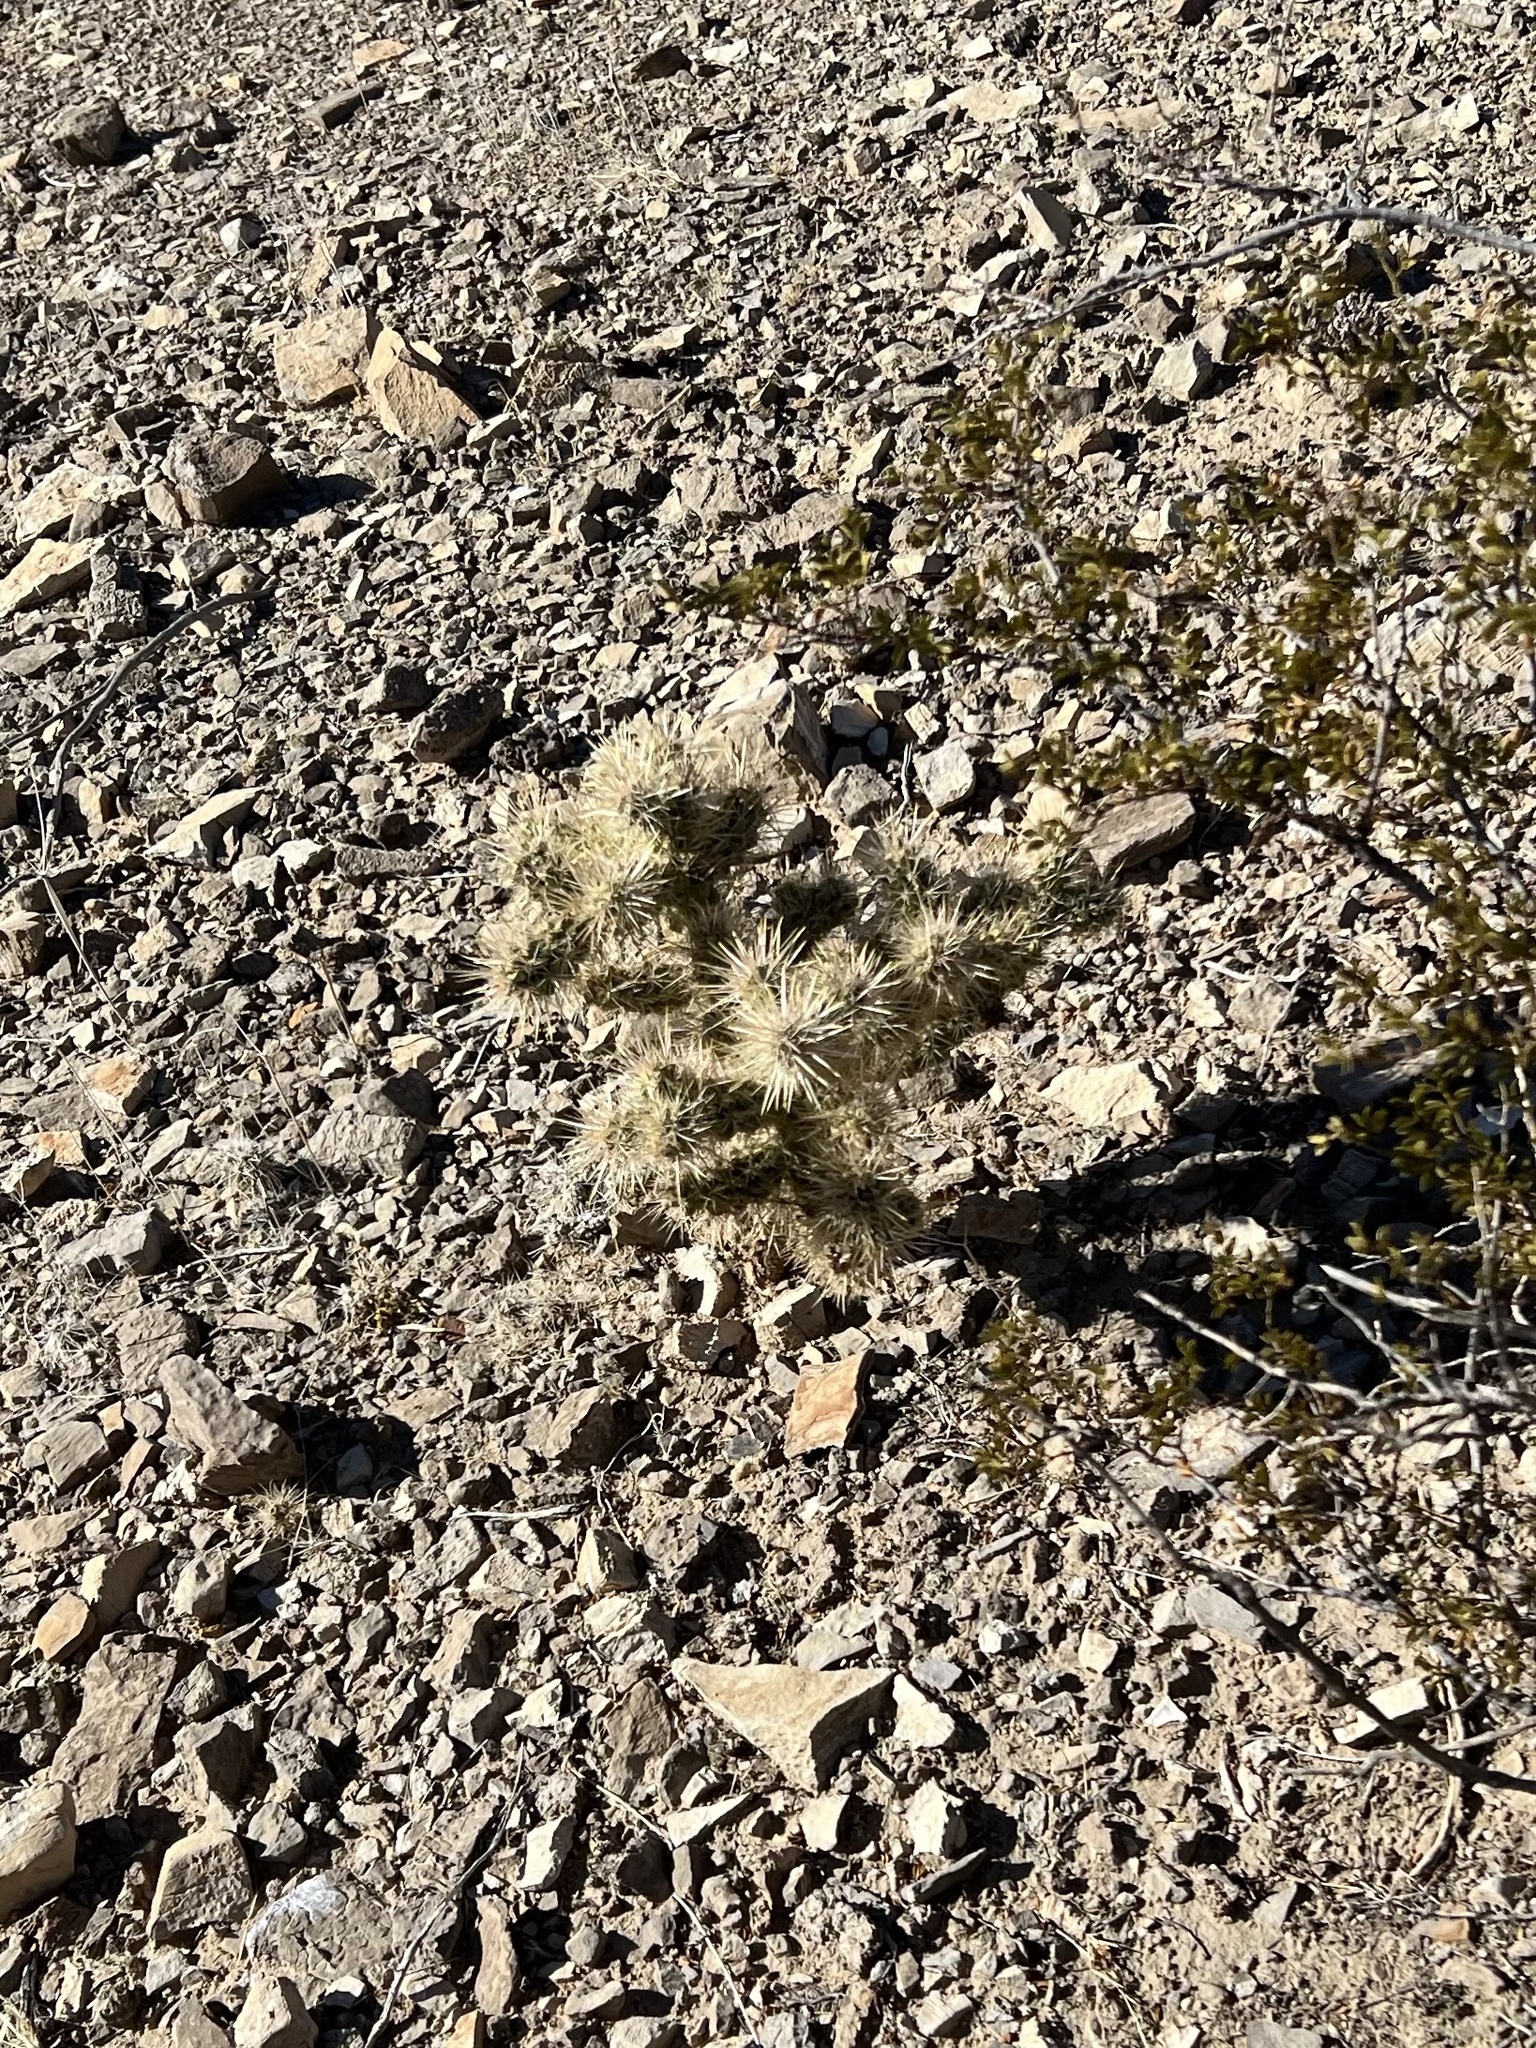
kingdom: Plantae
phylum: Tracheophyta
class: Magnoliopsida
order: Caryophyllales
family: Cactaceae
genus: Cylindropuntia
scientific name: Cylindropuntia echinocarpa
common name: Ground cholla
